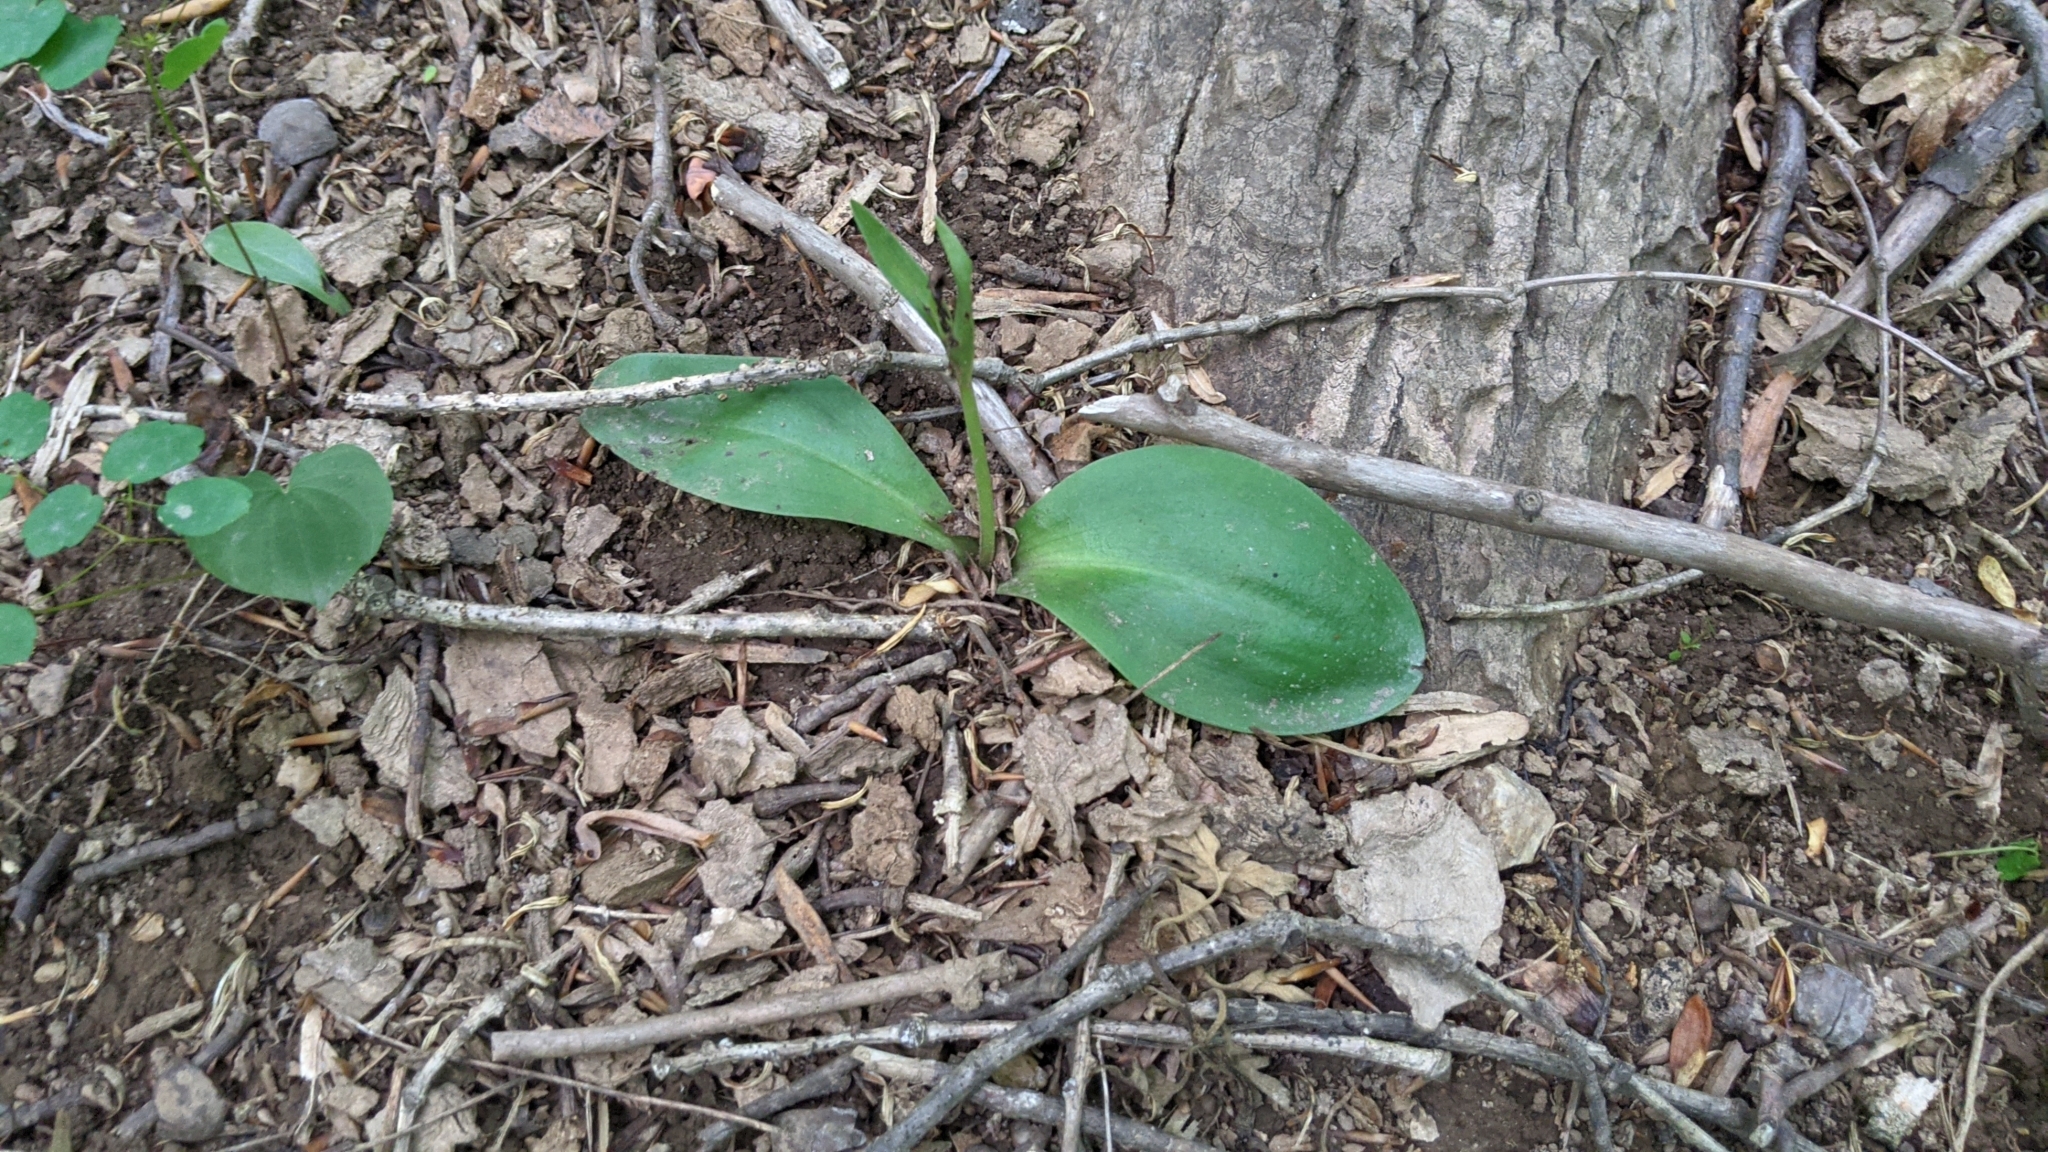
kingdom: Plantae
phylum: Tracheophyta
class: Liliopsida
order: Asparagales
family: Orchidaceae
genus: Galearis
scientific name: Galearis spectabilis
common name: Purple-hooded orchis
